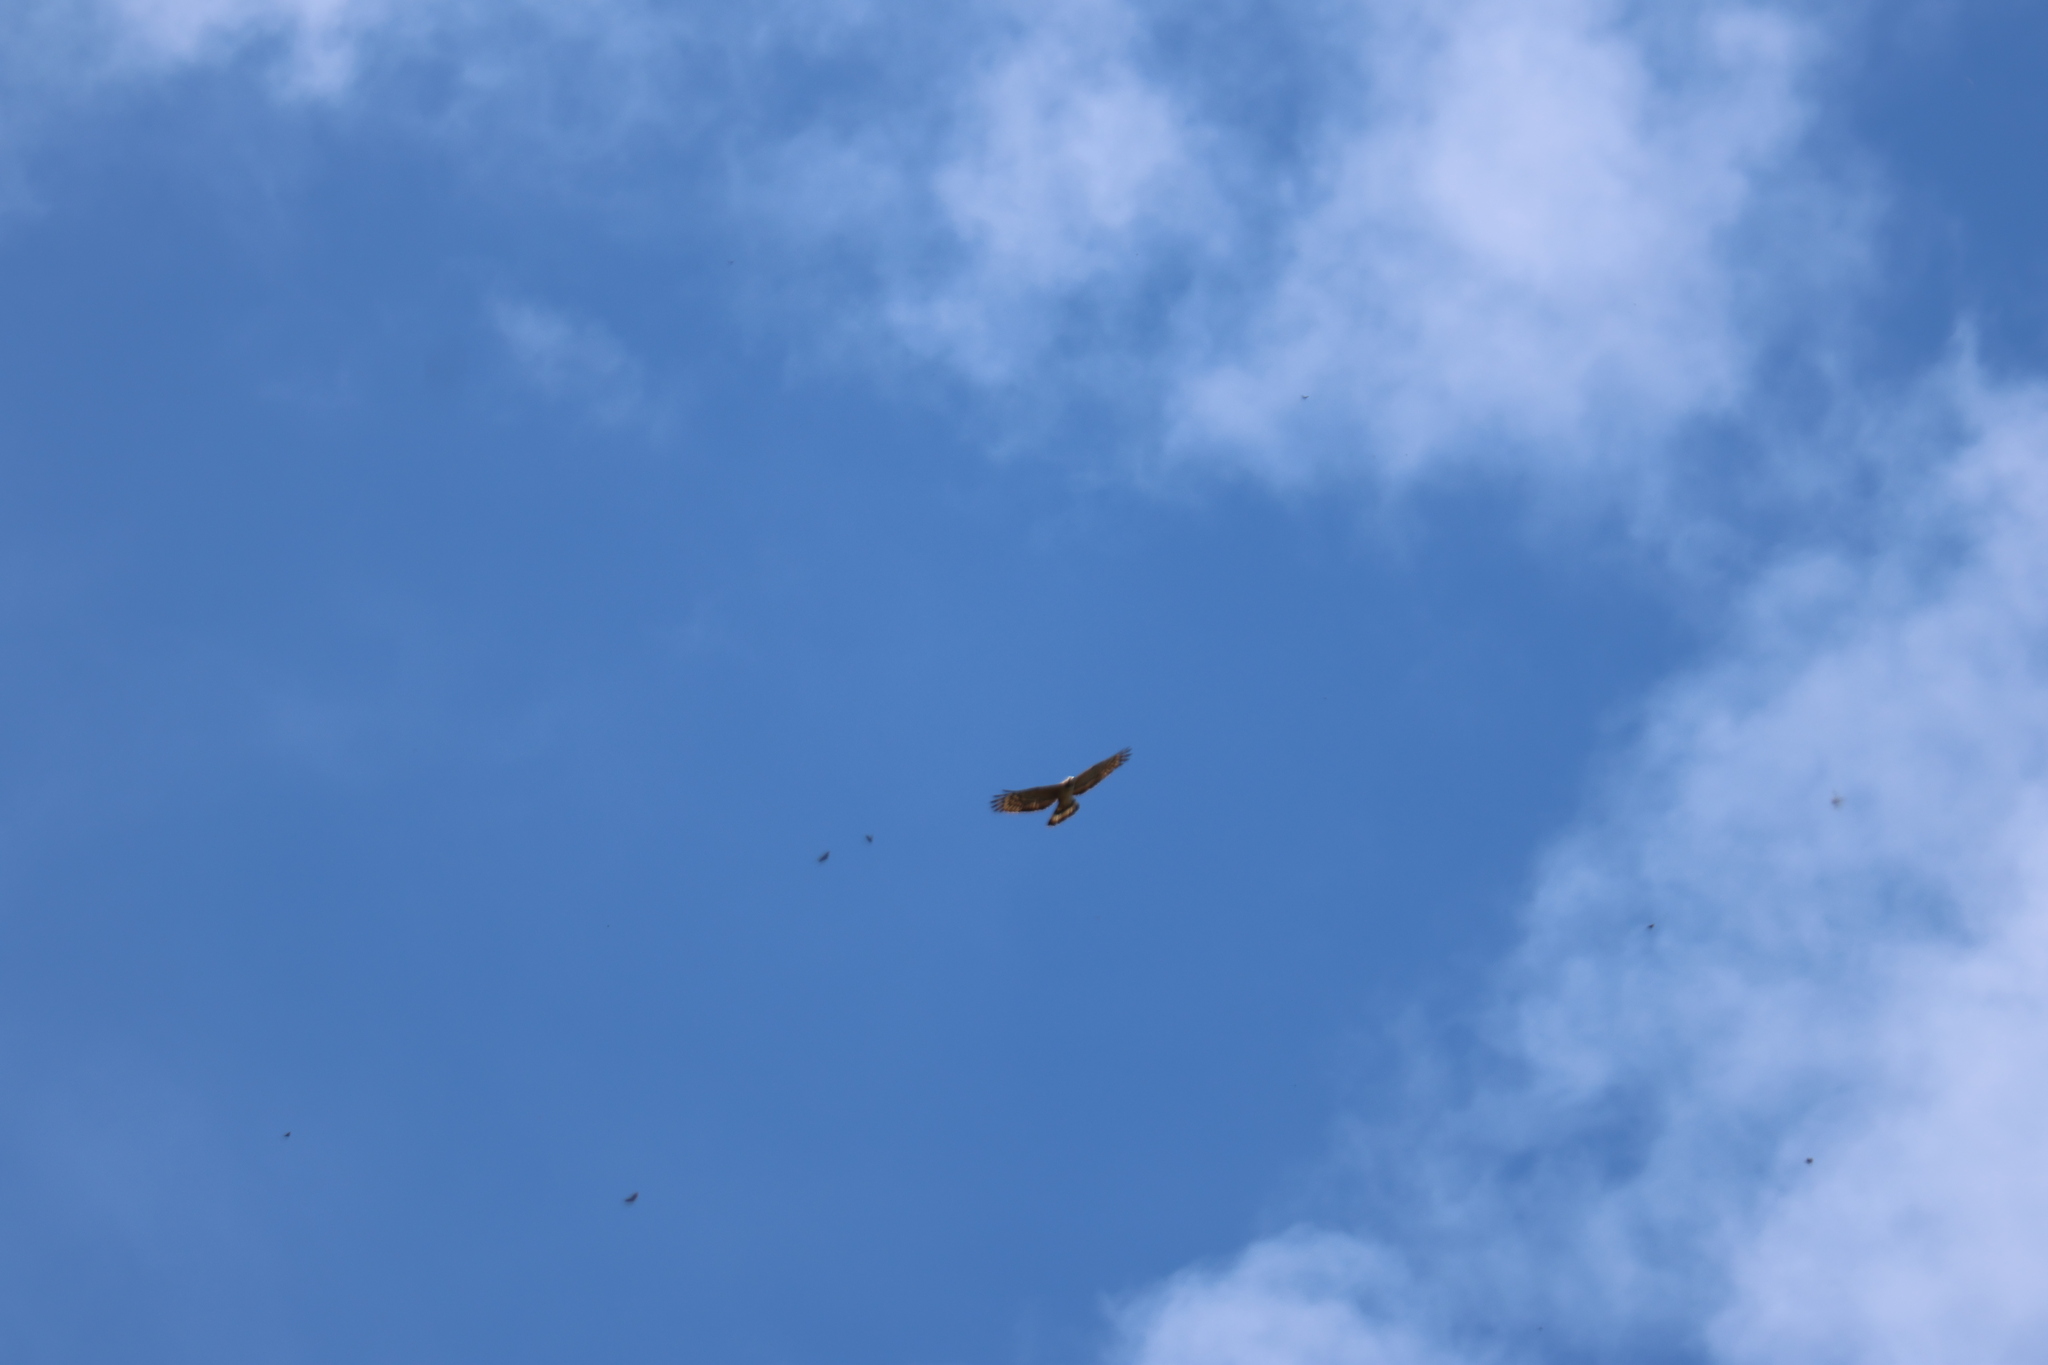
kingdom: Animalia
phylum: Chordata
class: Aves
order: Accipitriformes
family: Accipitridae
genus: Pernis
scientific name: Pernis ptilorhynchus
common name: Crested honey buzzard
